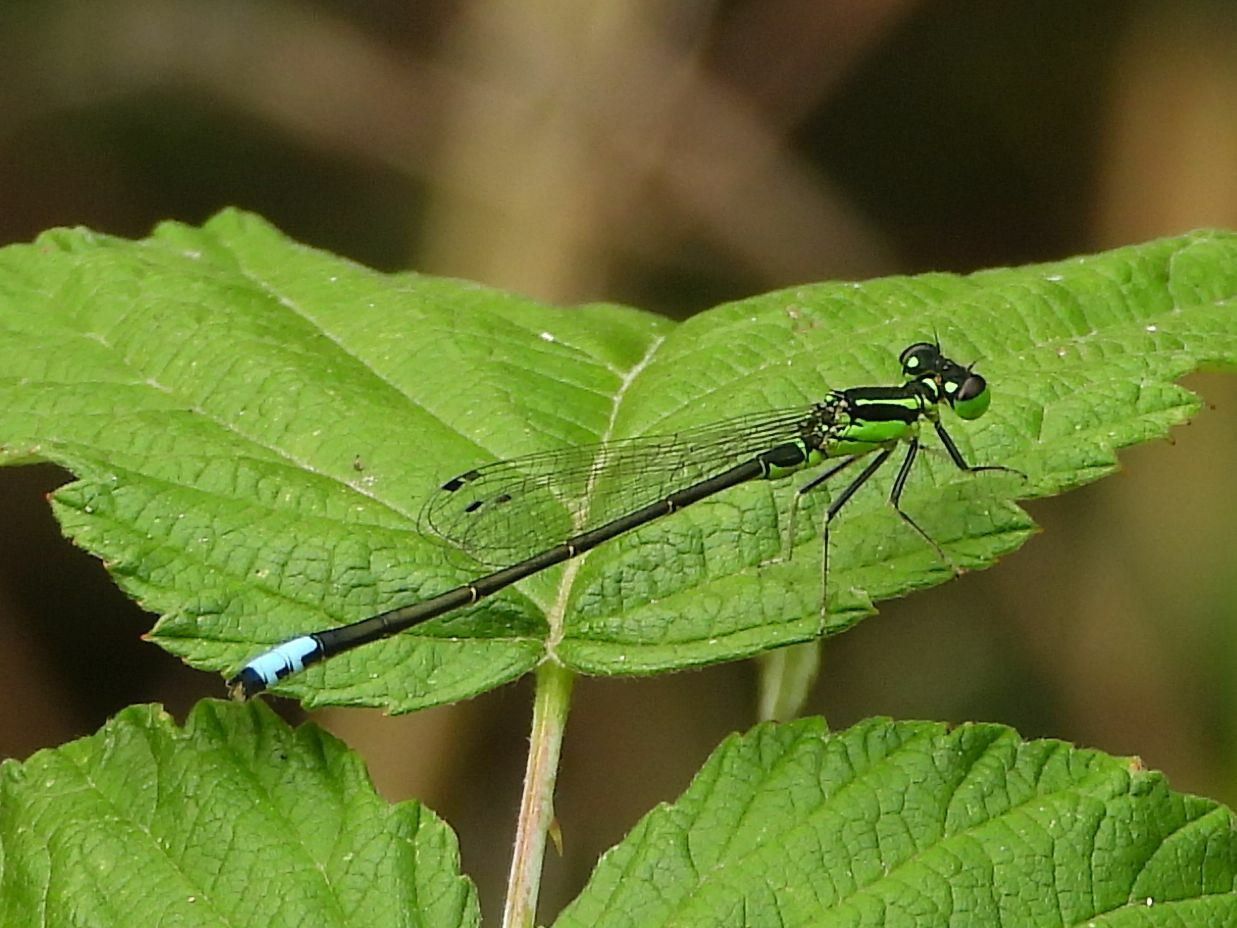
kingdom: Animalia
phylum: Arthropoda
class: Insecta
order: Odonata
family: Coenagrionidae
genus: Ischnura
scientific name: Ischnura verticalis
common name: Eastern forktail
